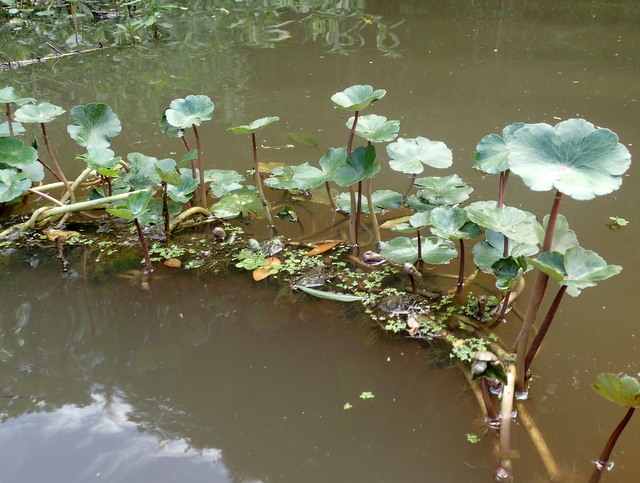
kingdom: Plantae
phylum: Tracheophyta
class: Magnoliopsida
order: Apiales
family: Araliaceae
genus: Hydrocotyle
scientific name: Hydrocotyle ranunculoides
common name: Floating pennywort
